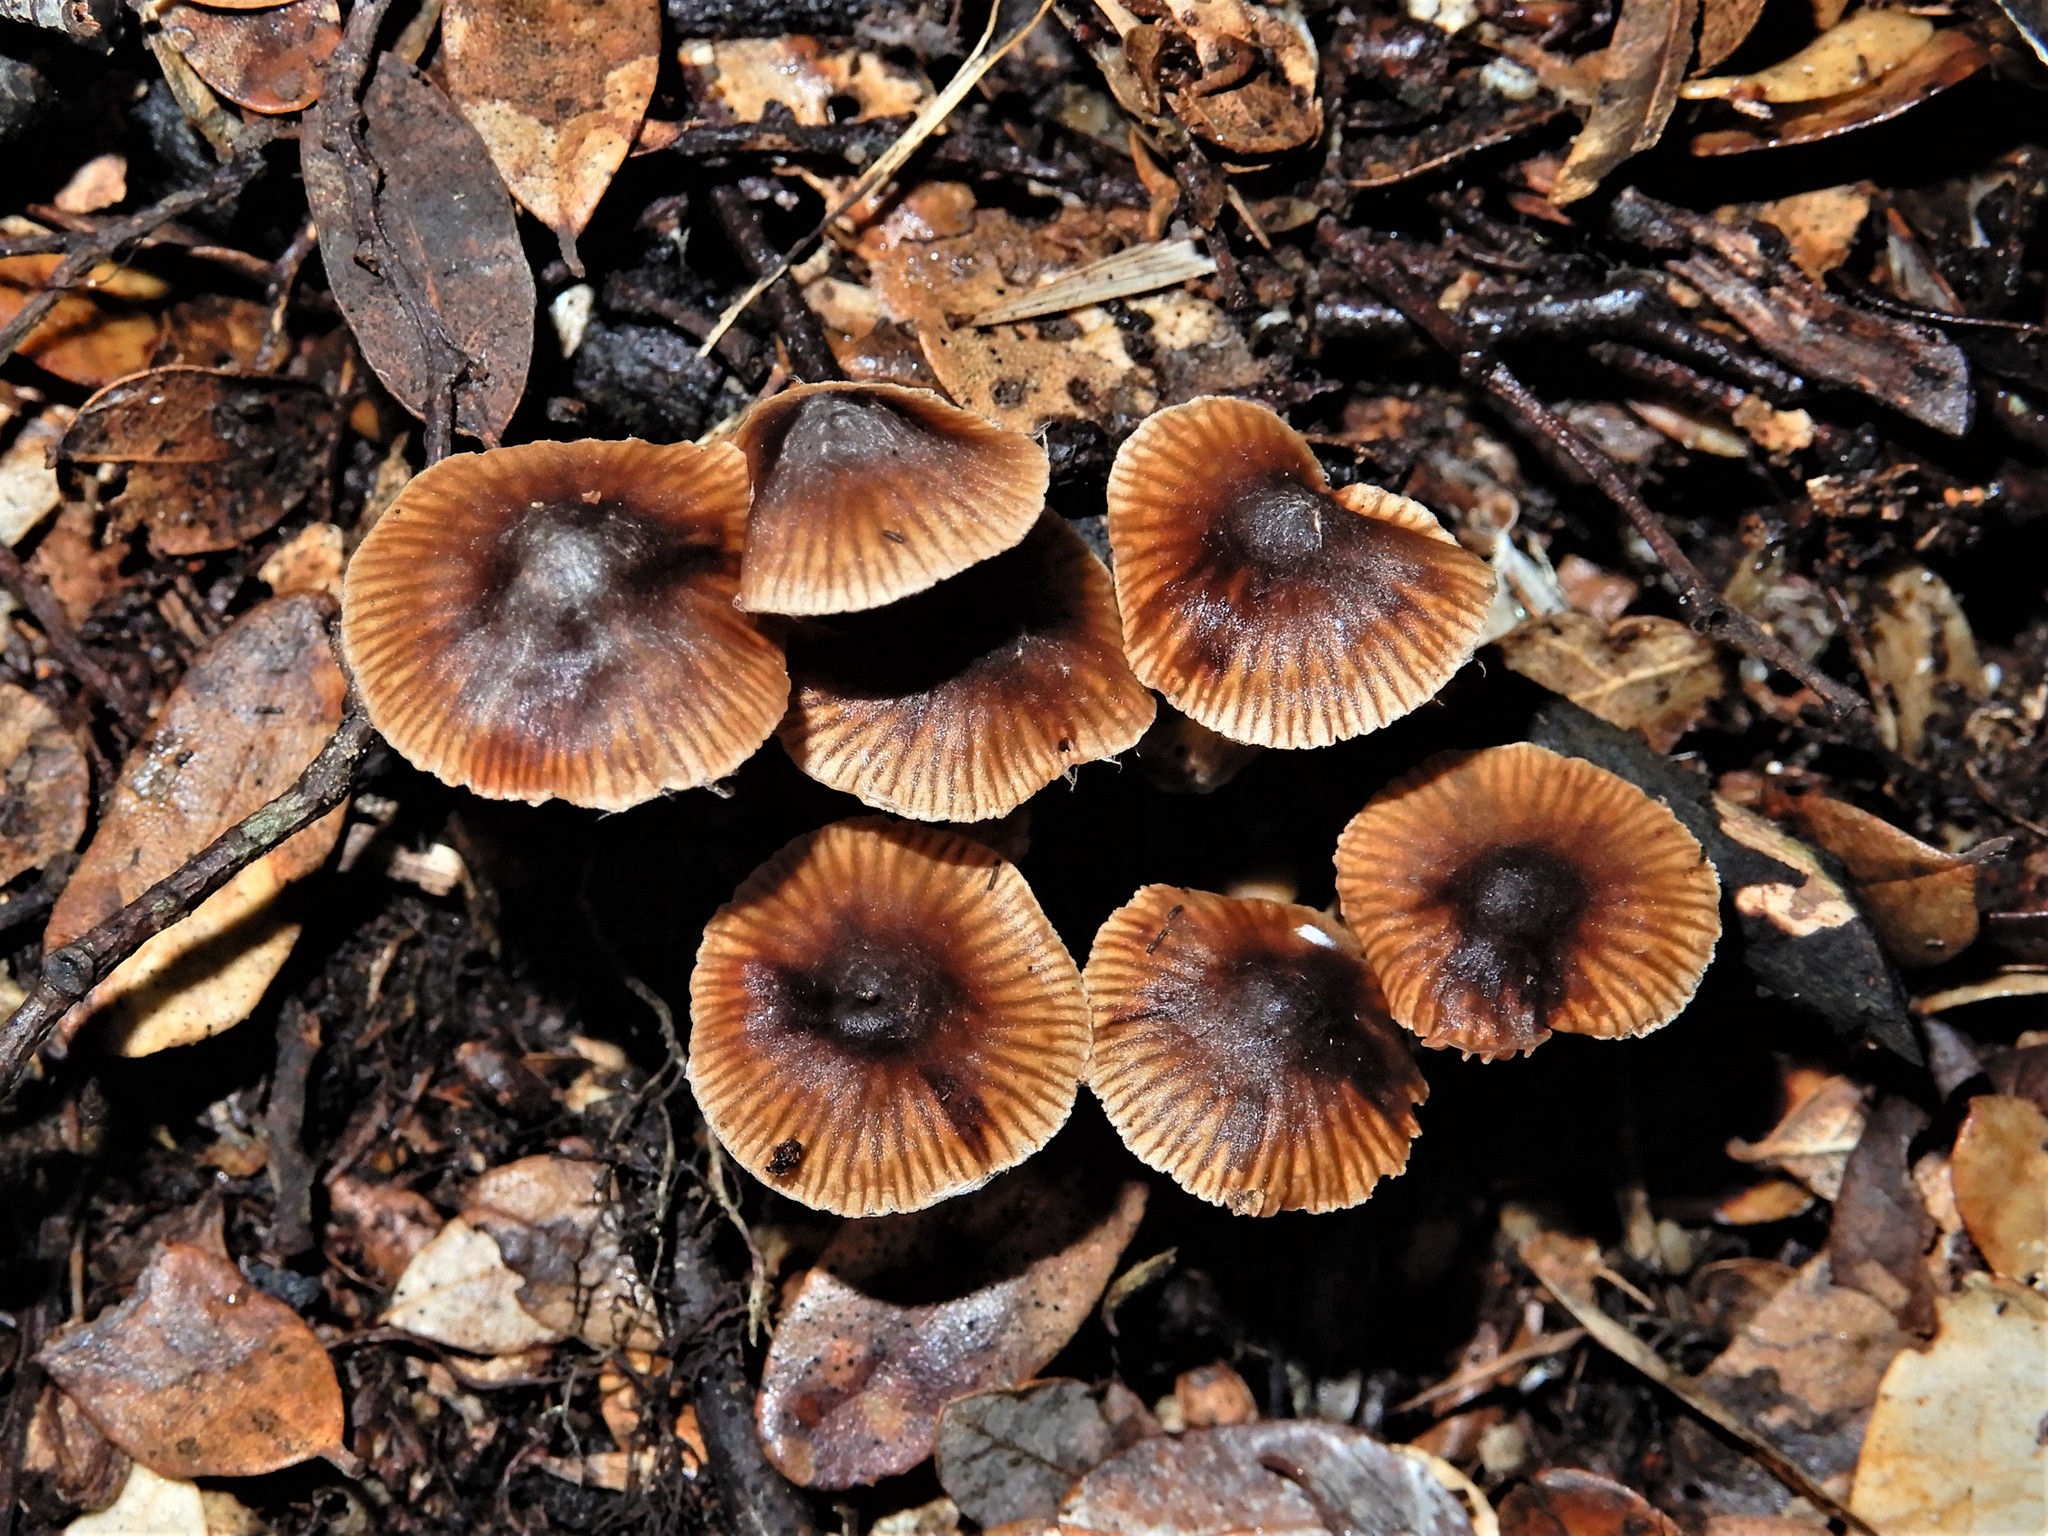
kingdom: Fungi
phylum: Basidiomycota
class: Agaricomycetes
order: Agaricales
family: Cortinariaceae
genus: Cortinarius
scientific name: Cortinarius
